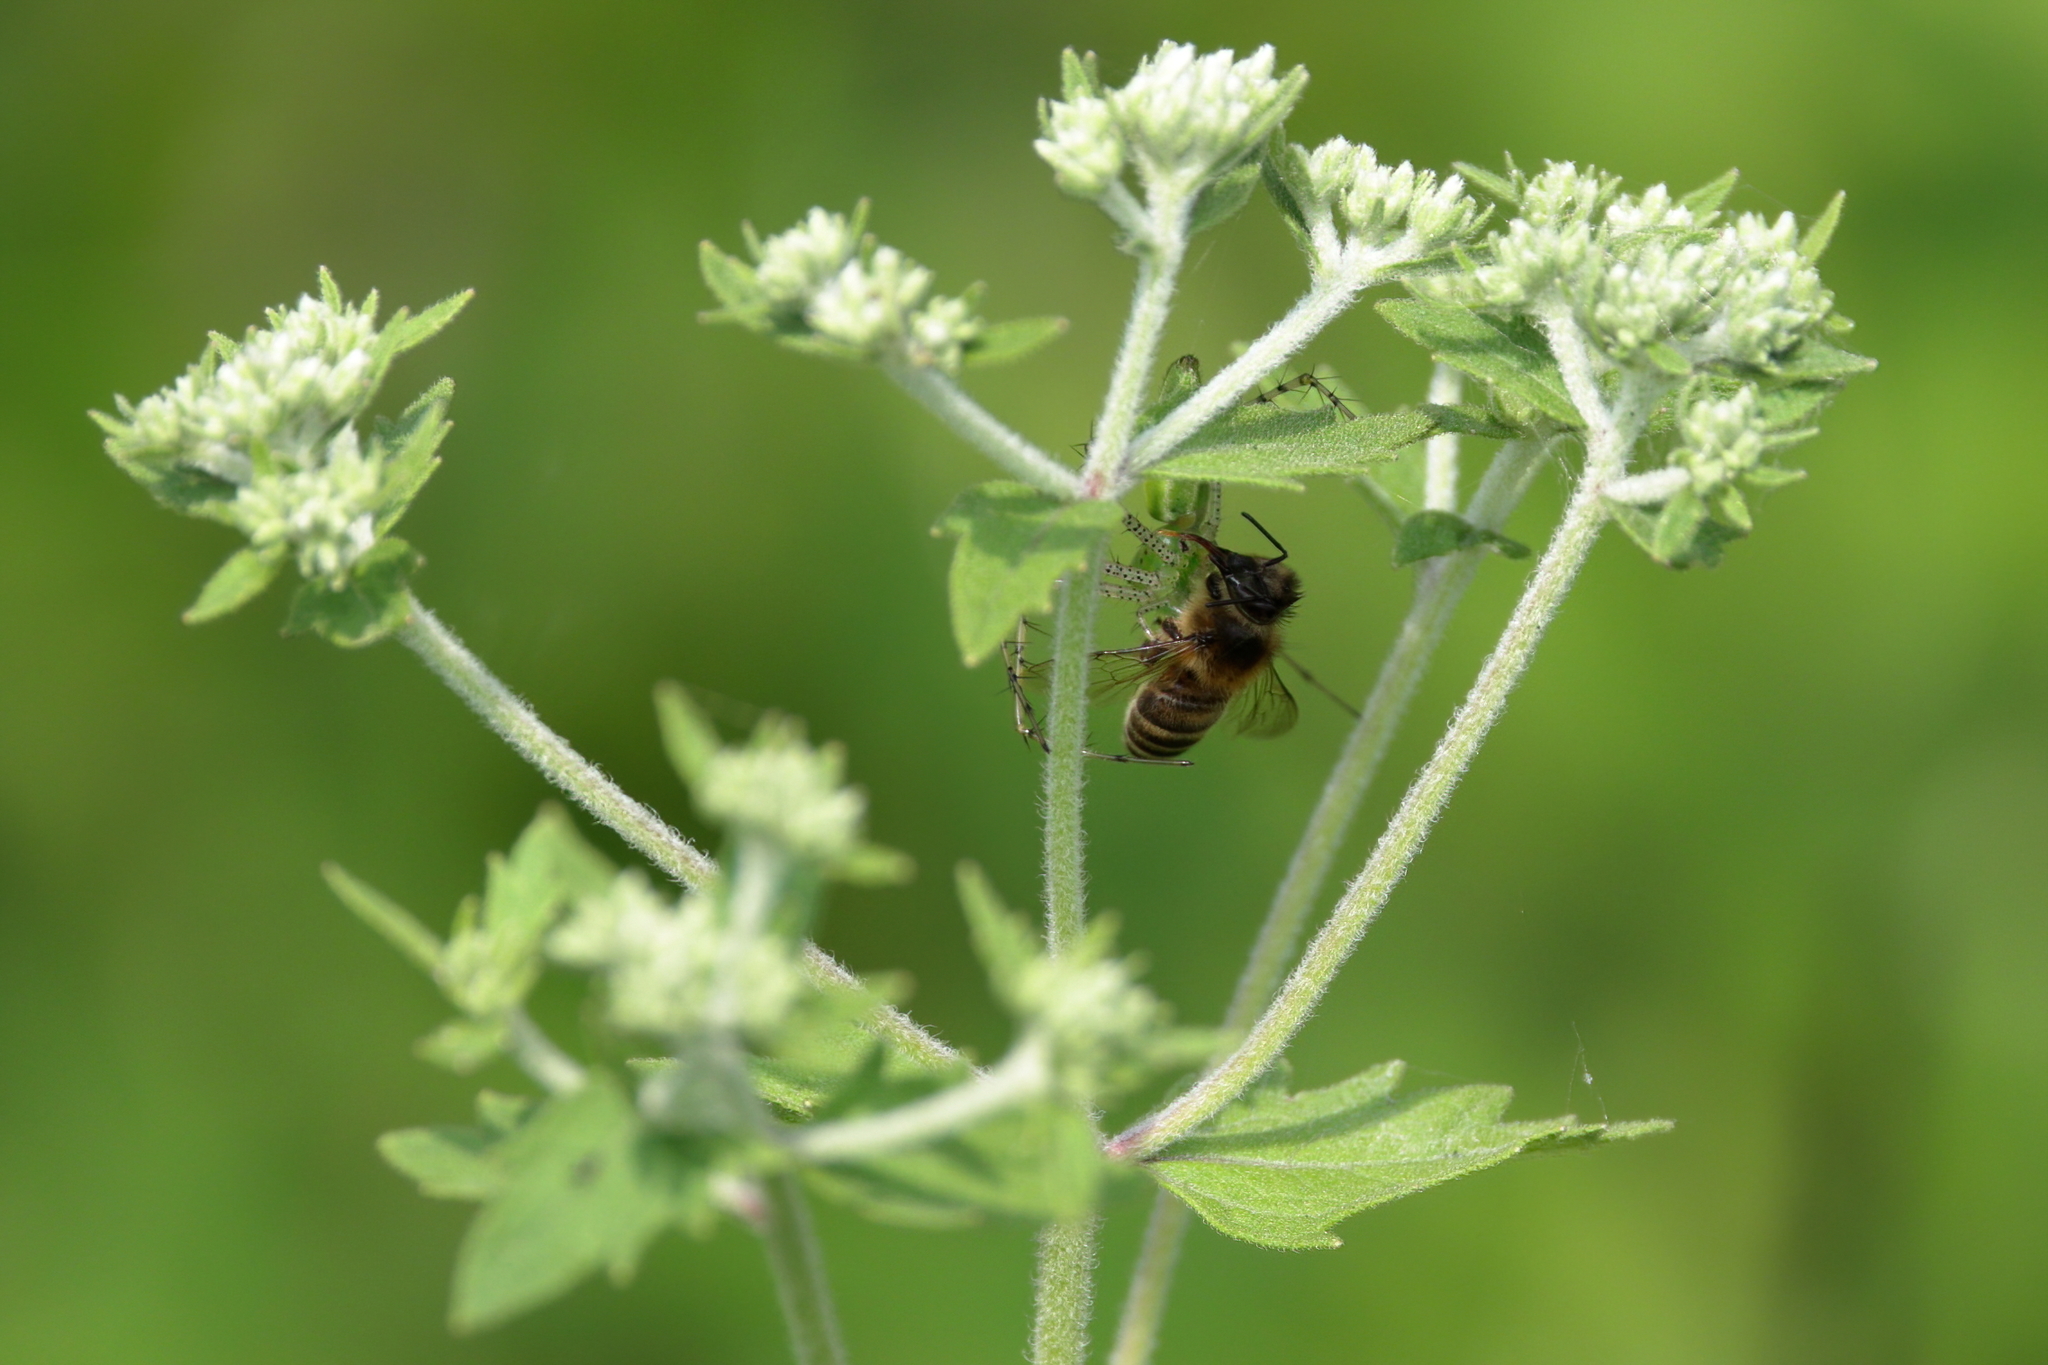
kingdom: Animalia
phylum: Arthropoda
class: Insecta
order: Hymenoptera
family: Apidae
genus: Apis
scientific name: Apis mellifera
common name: Honey bee
